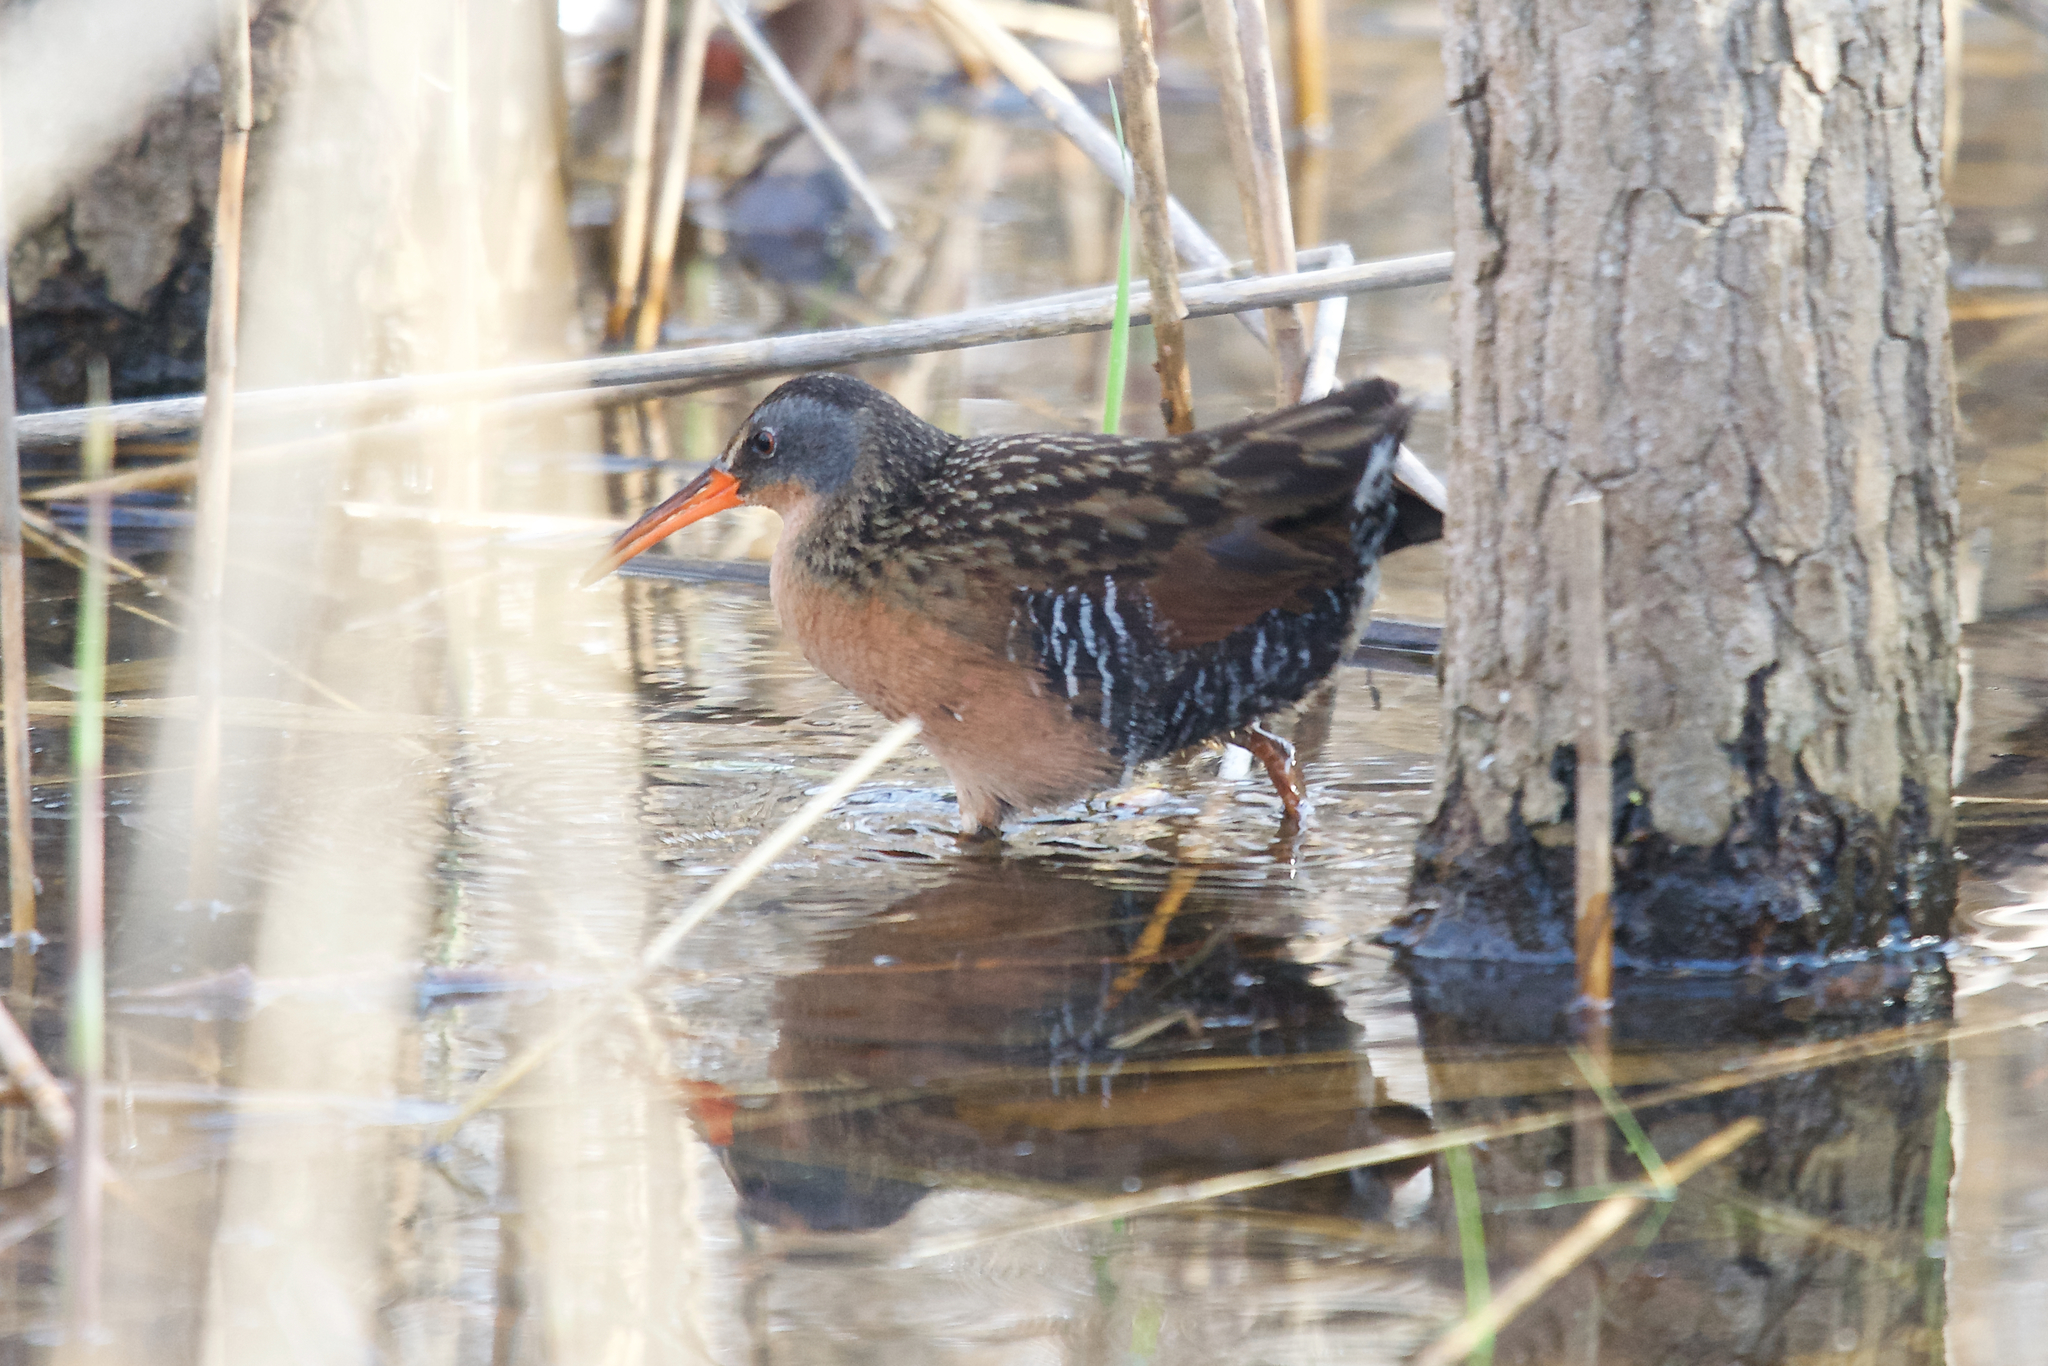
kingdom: Animalia
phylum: Chordata
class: Aves
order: Gruiformes
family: Rallidae
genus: Rallus
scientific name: Rallus limicola
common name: Virginia rail
